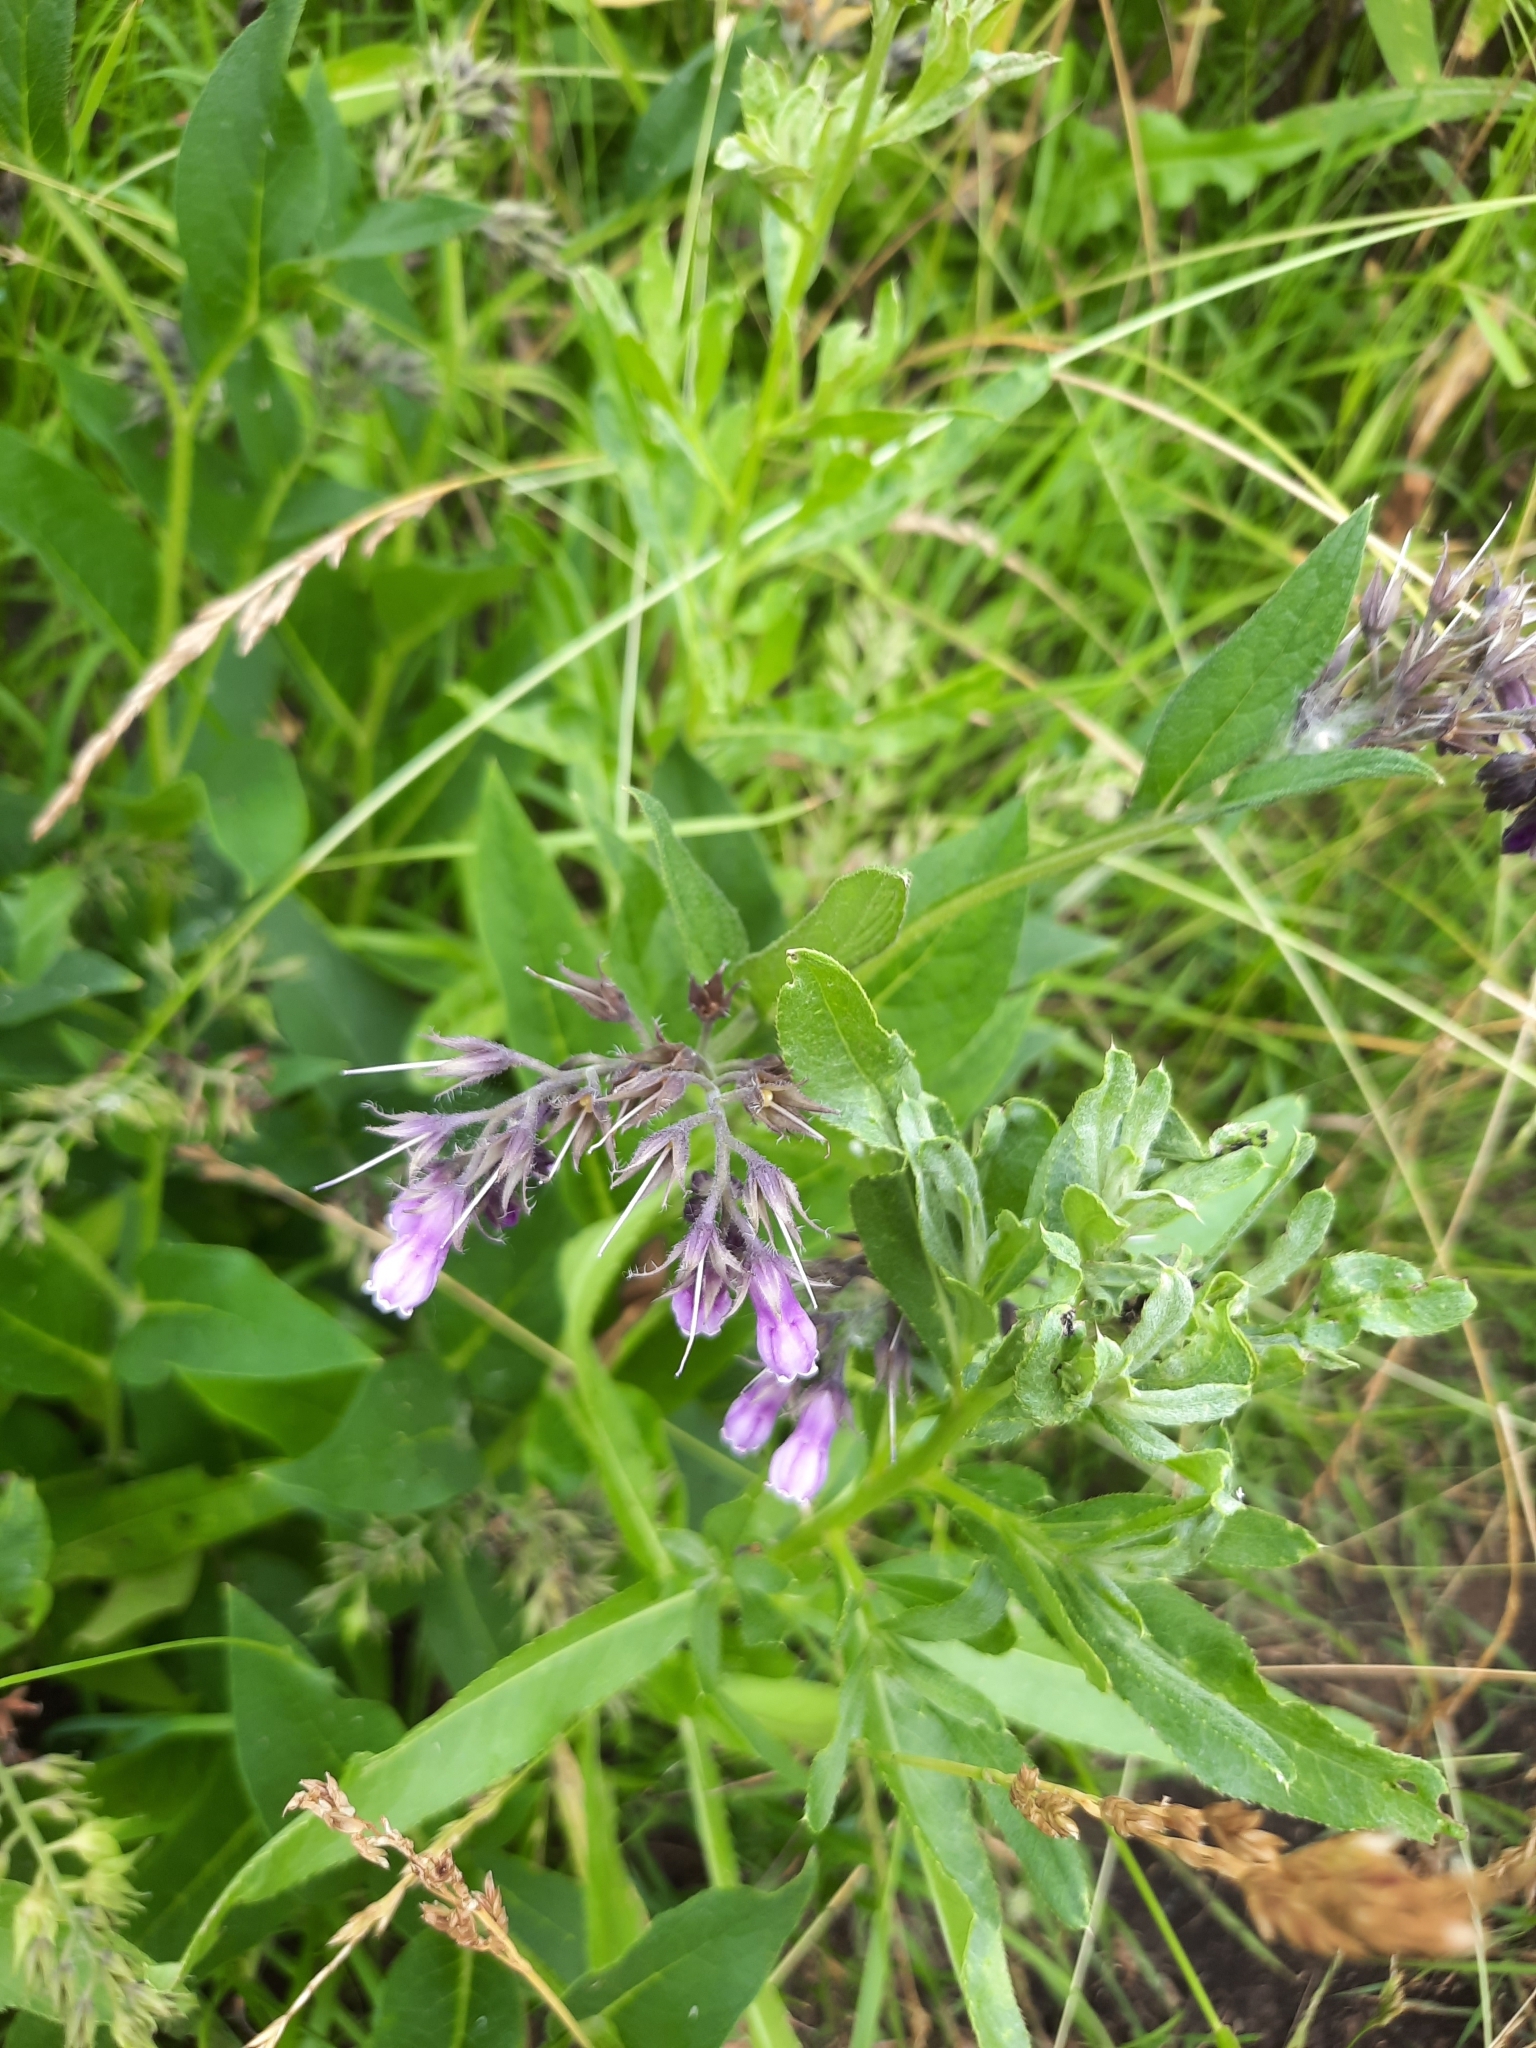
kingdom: Plantae
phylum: Tracheophyta
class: Magnoliopsida
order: Boraginales
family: Boraginaceae
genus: Symphytum
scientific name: Symphytum officinale
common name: Common comfrey
